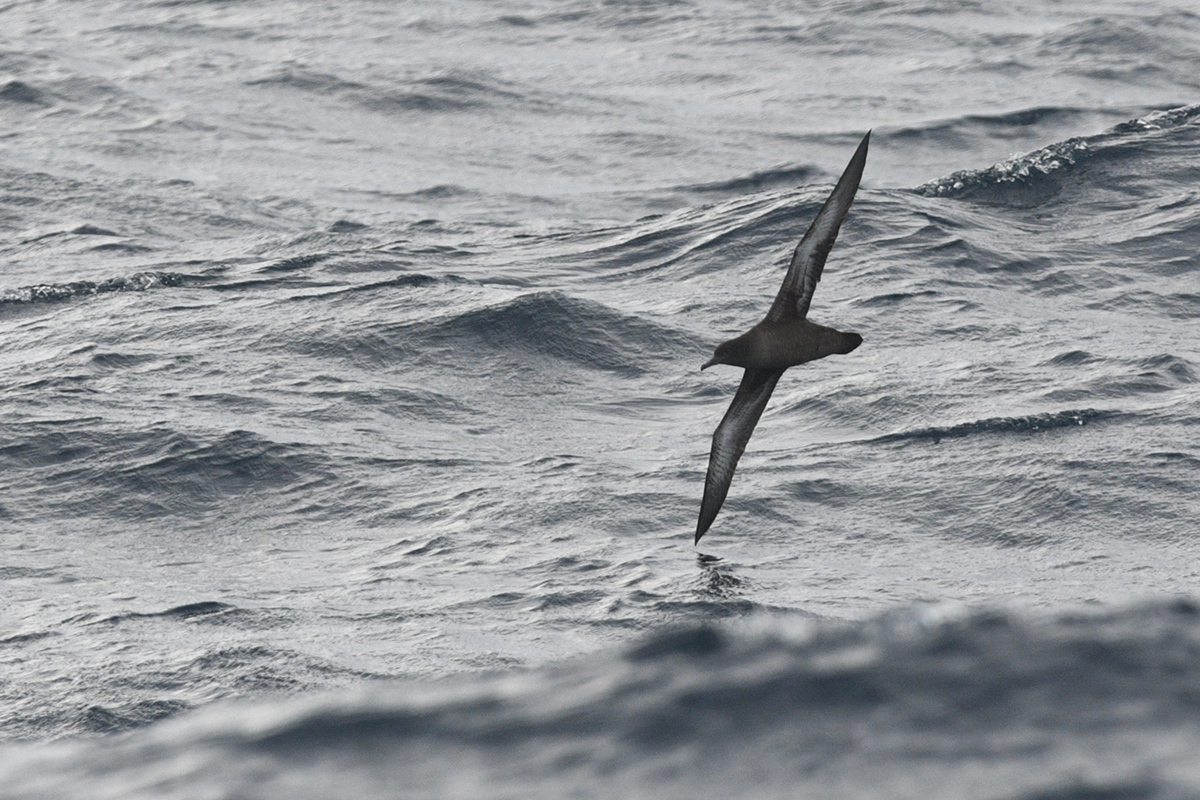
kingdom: Animalia
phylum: Chordata
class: Aves
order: Procellariiformes
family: Procellariidae
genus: Puffinus
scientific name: Puffinus griseus
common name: Sooty shearwater
